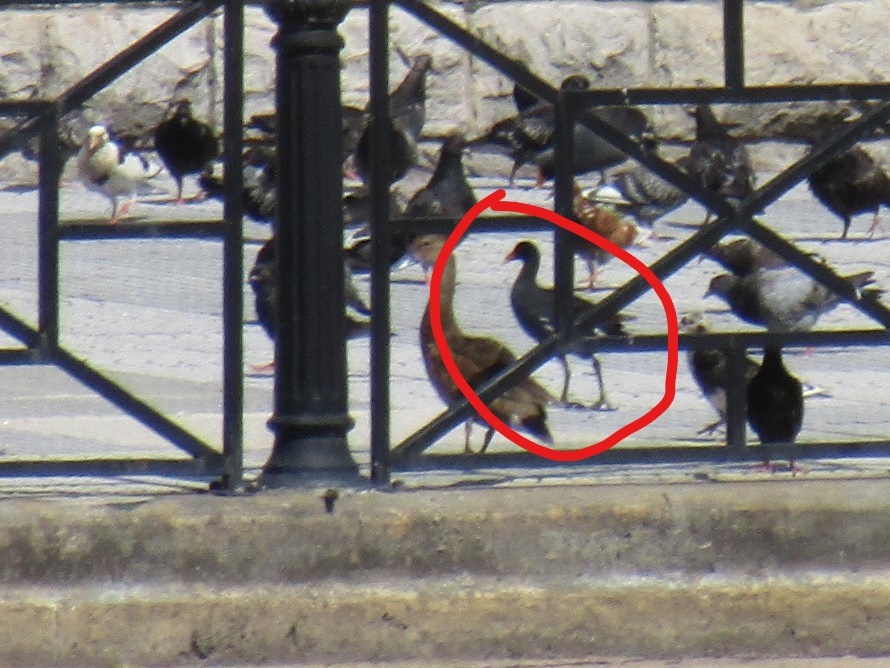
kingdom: Animalia
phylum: Chordata
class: Aves
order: Gruiformes
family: Rallidae
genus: Gallinula
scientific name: Gallinula chloropus
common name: Common moorhen
